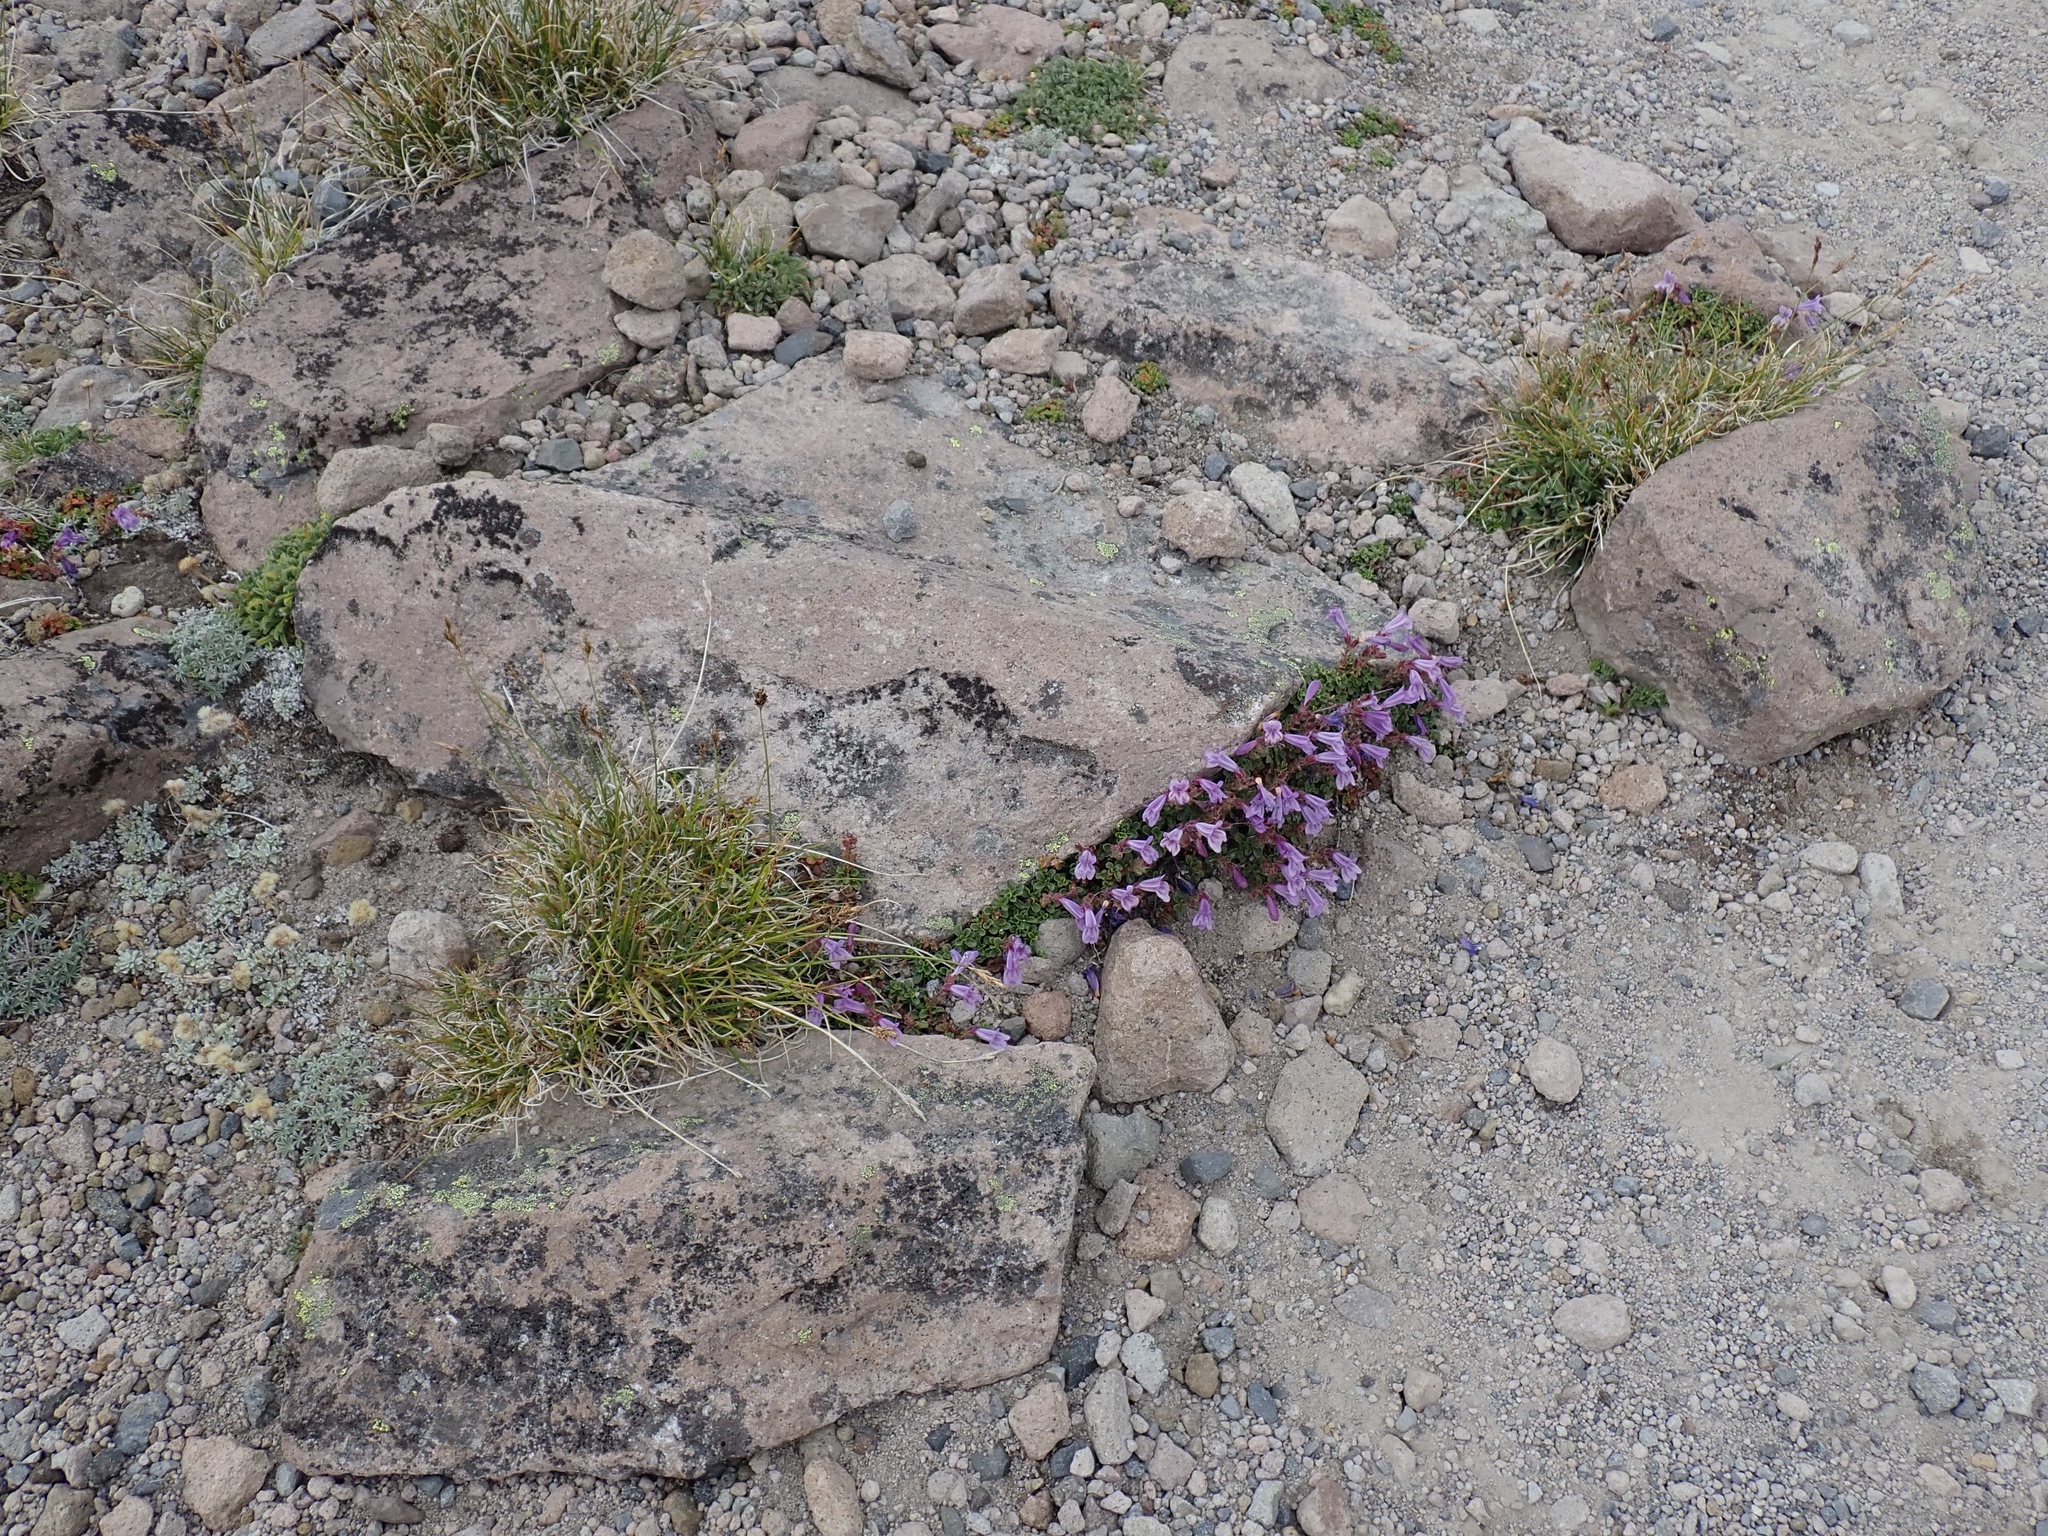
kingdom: Plantae
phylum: Tracheophyta
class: Magnoliopsida
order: Lamiales
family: Plantaginaceae
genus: Penstemon
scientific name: Penstemon davidsonii
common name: Davidson's penstemon
